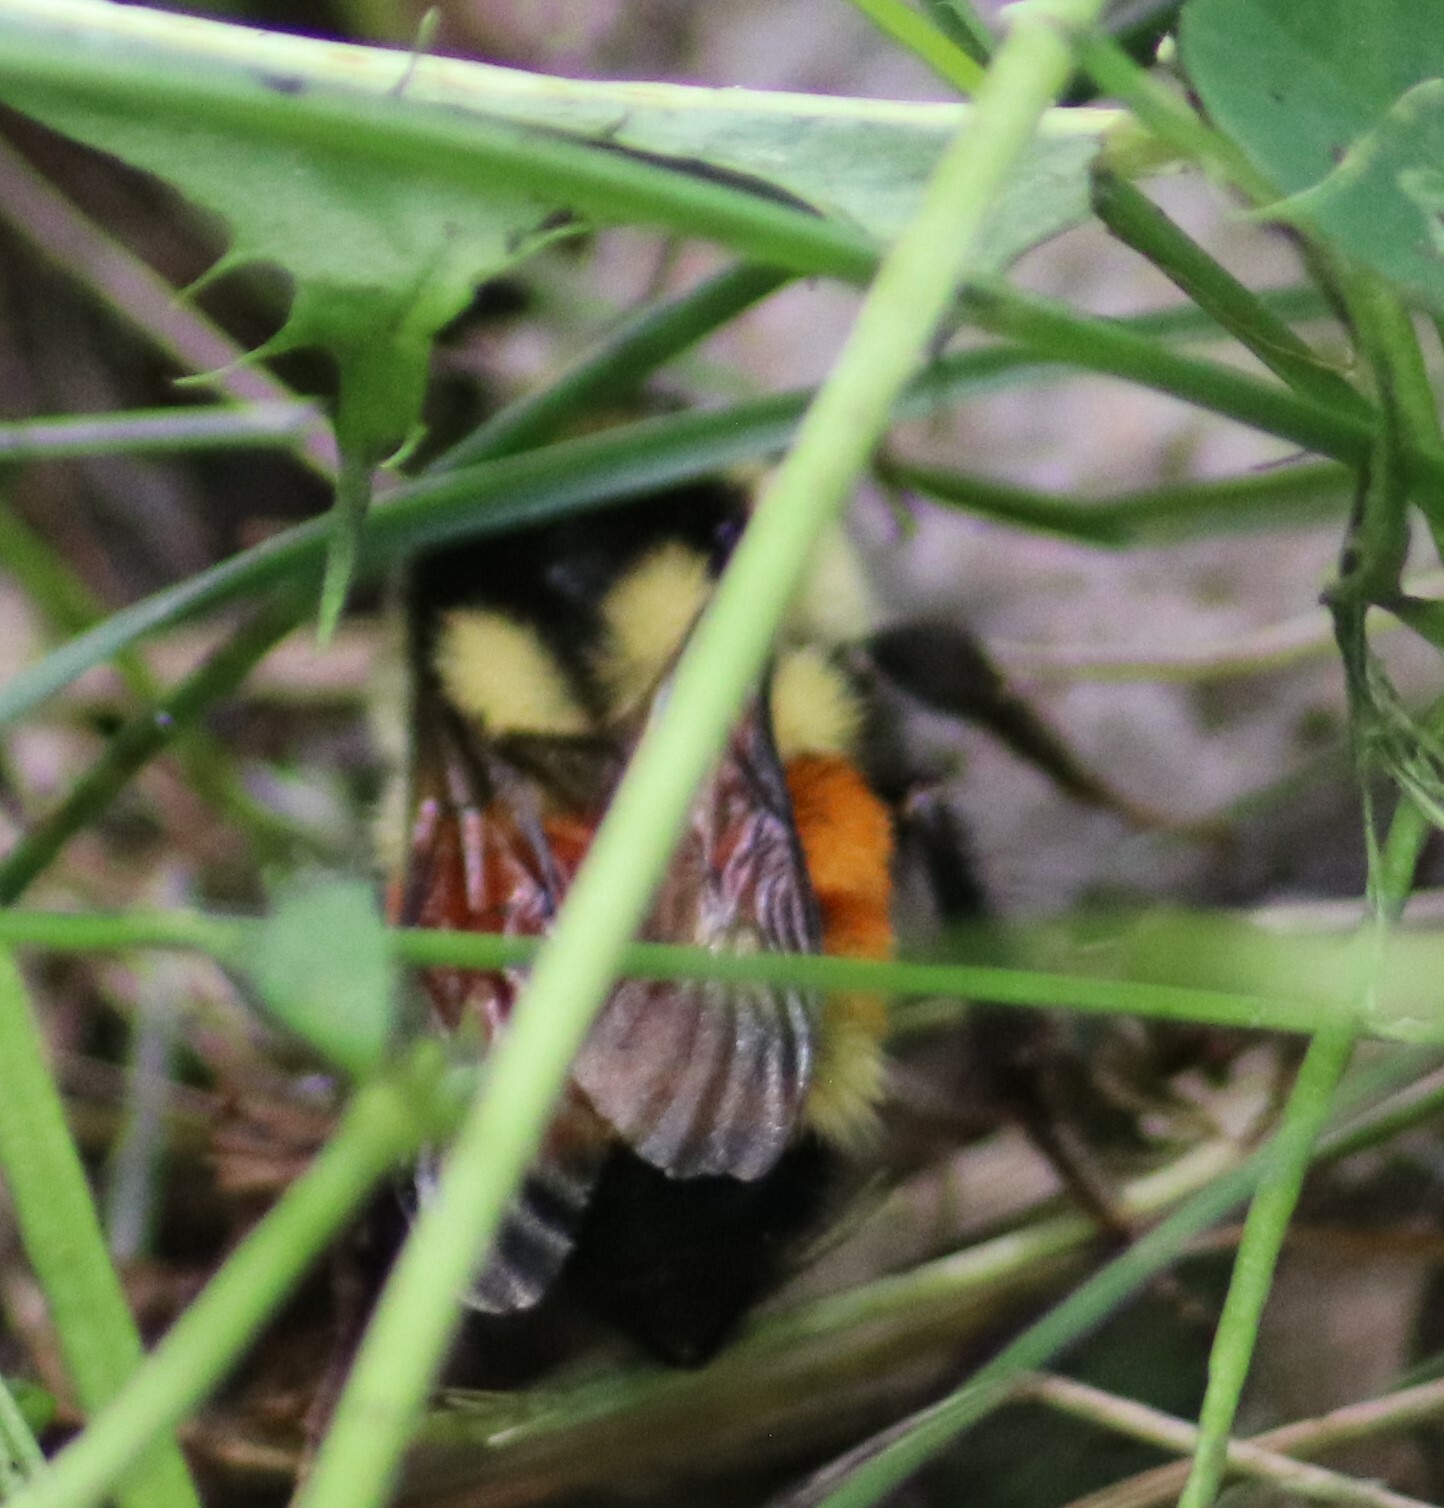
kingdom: Animalia
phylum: Arthropoda
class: Insecta
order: Hymenoptera
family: Apidae
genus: Bombus
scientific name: Bombus ternarius
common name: Tri-colored bumble bee
